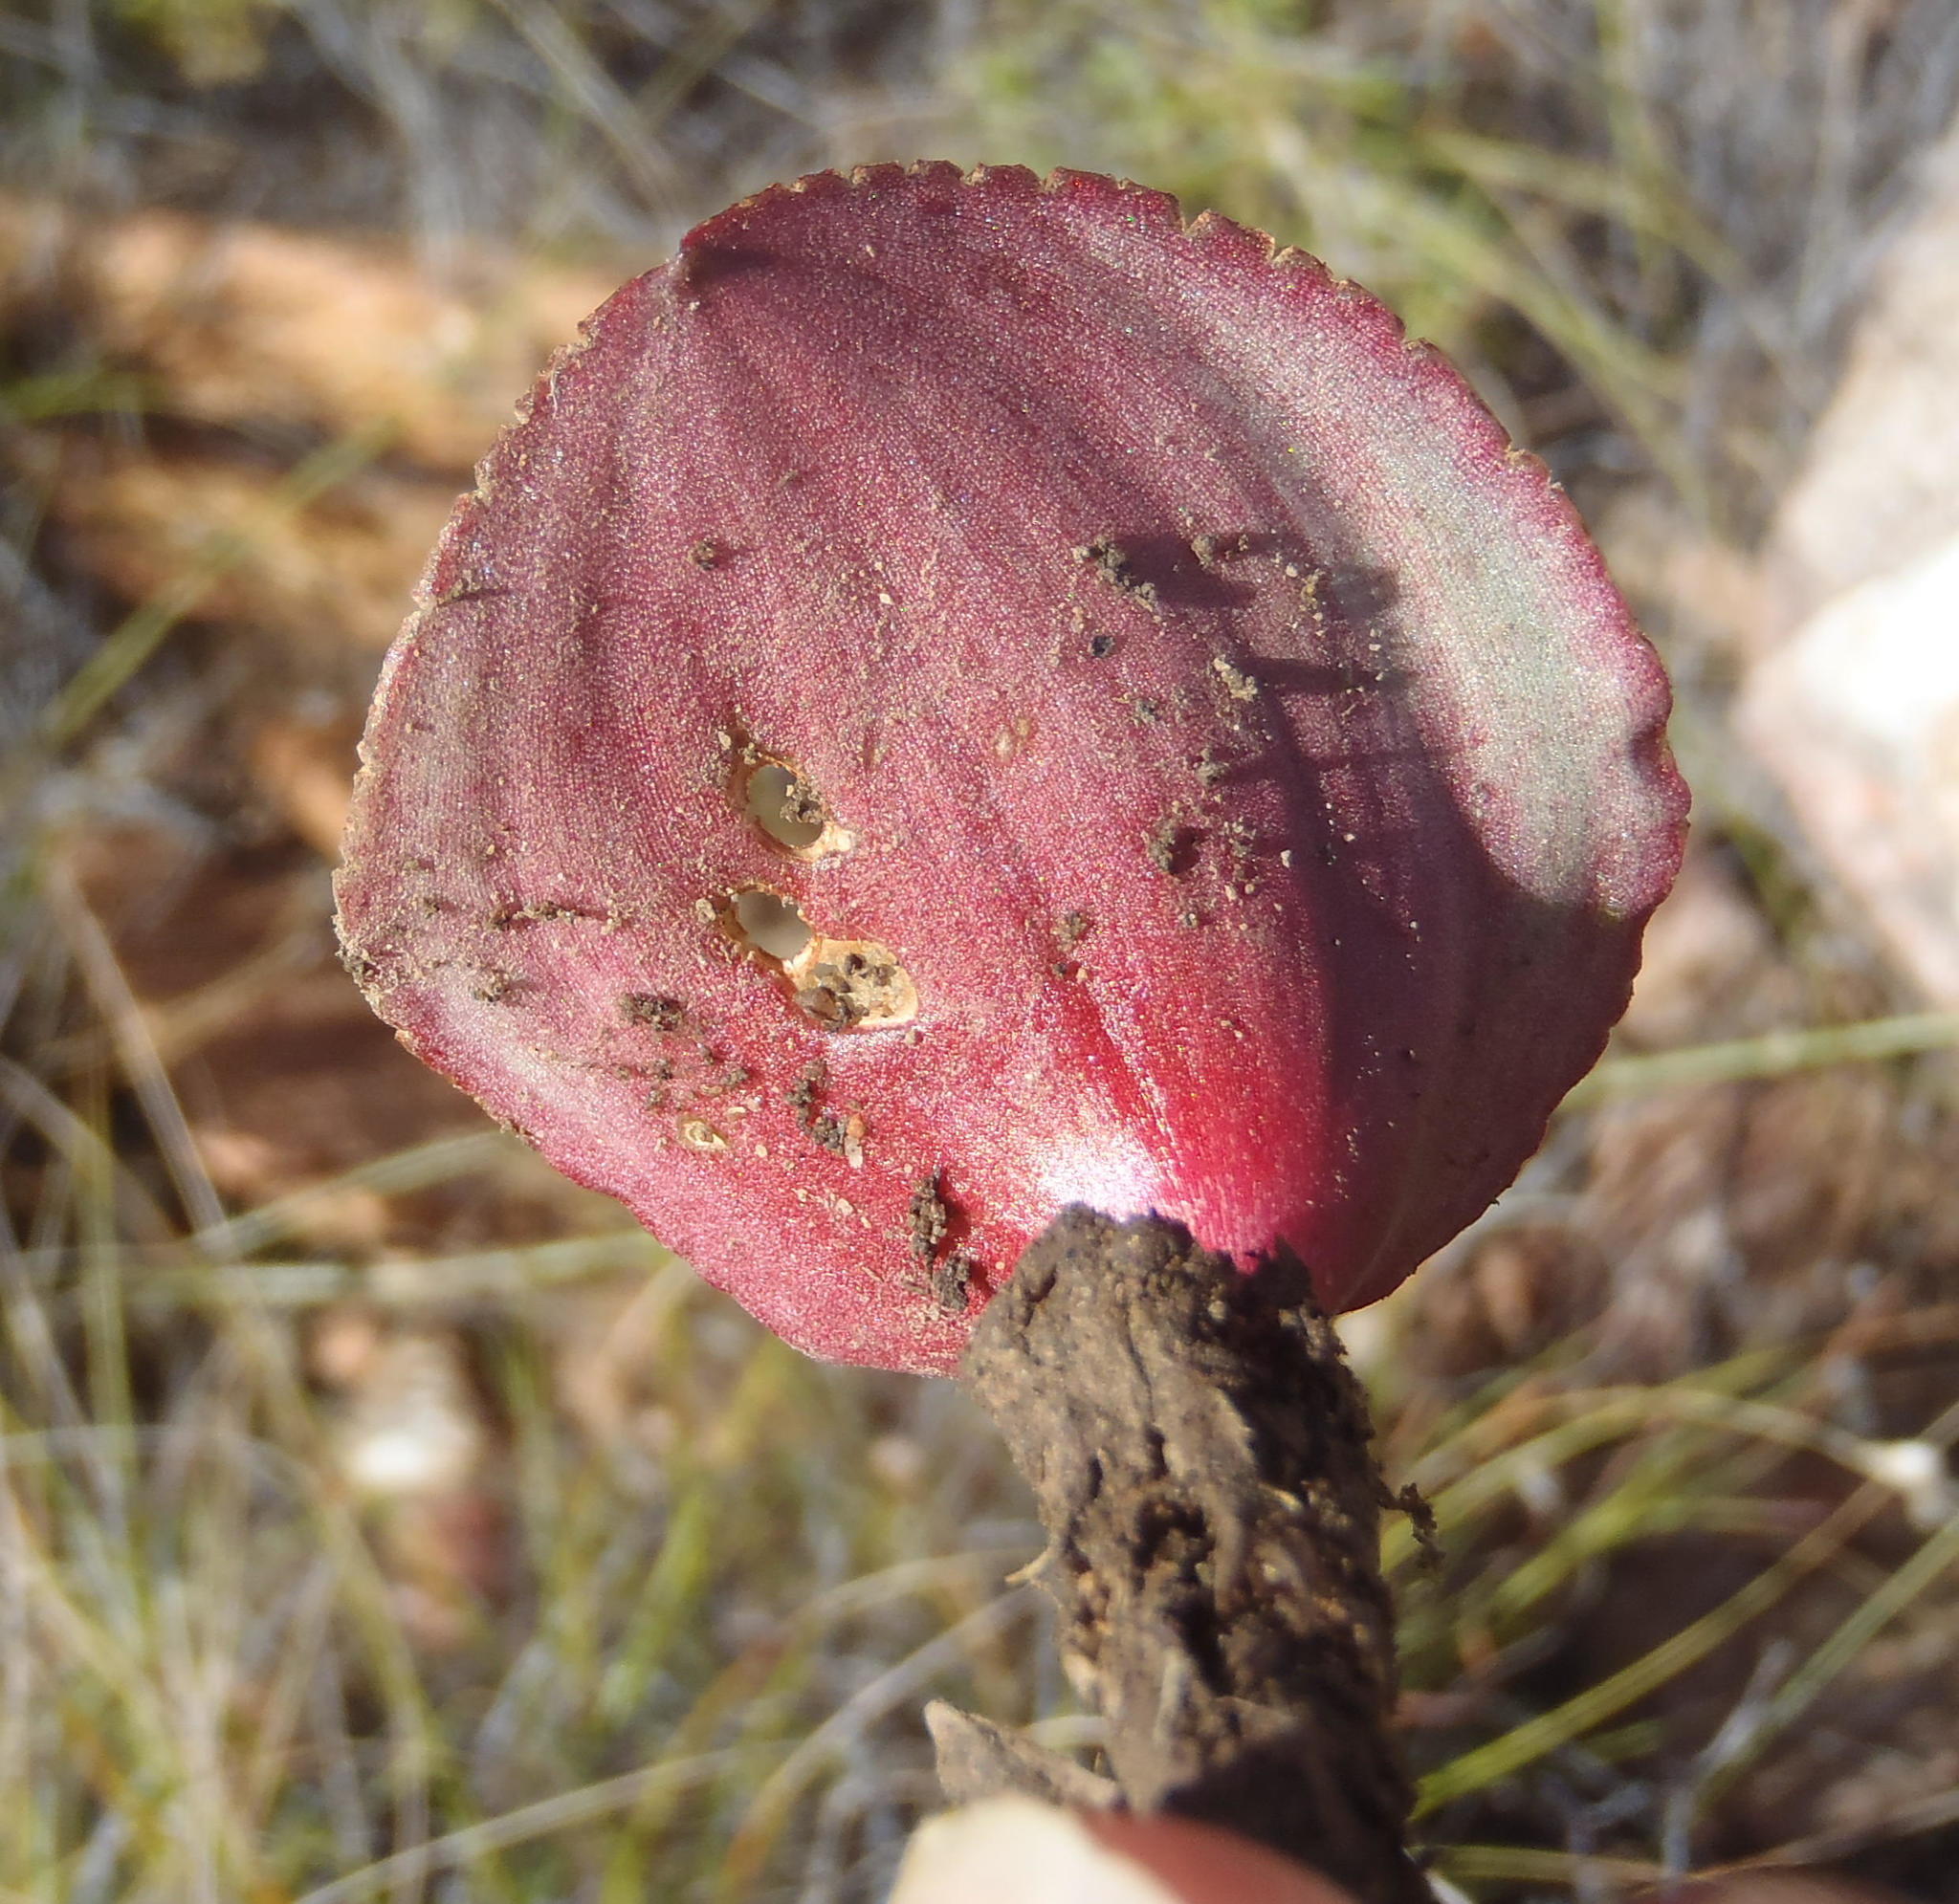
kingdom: Plantae
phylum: Tracheophyta
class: Liliopsida
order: Asparagales
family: Asparagaceae
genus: Eriospermum
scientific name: Eriospermum cordiforme
